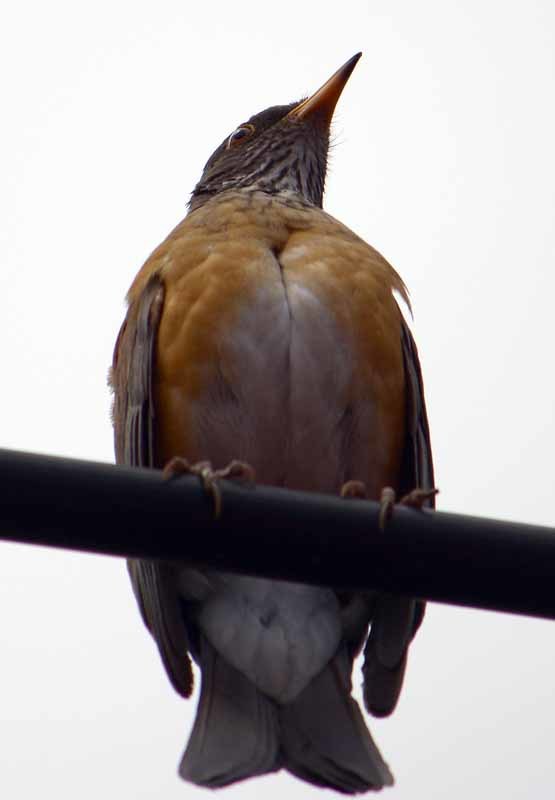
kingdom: Animalia
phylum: Chordata
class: Aves
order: Passeriformes
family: Turdidae
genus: Turdus
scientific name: Turdus rufopalliatus
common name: Rufous-backed robin
